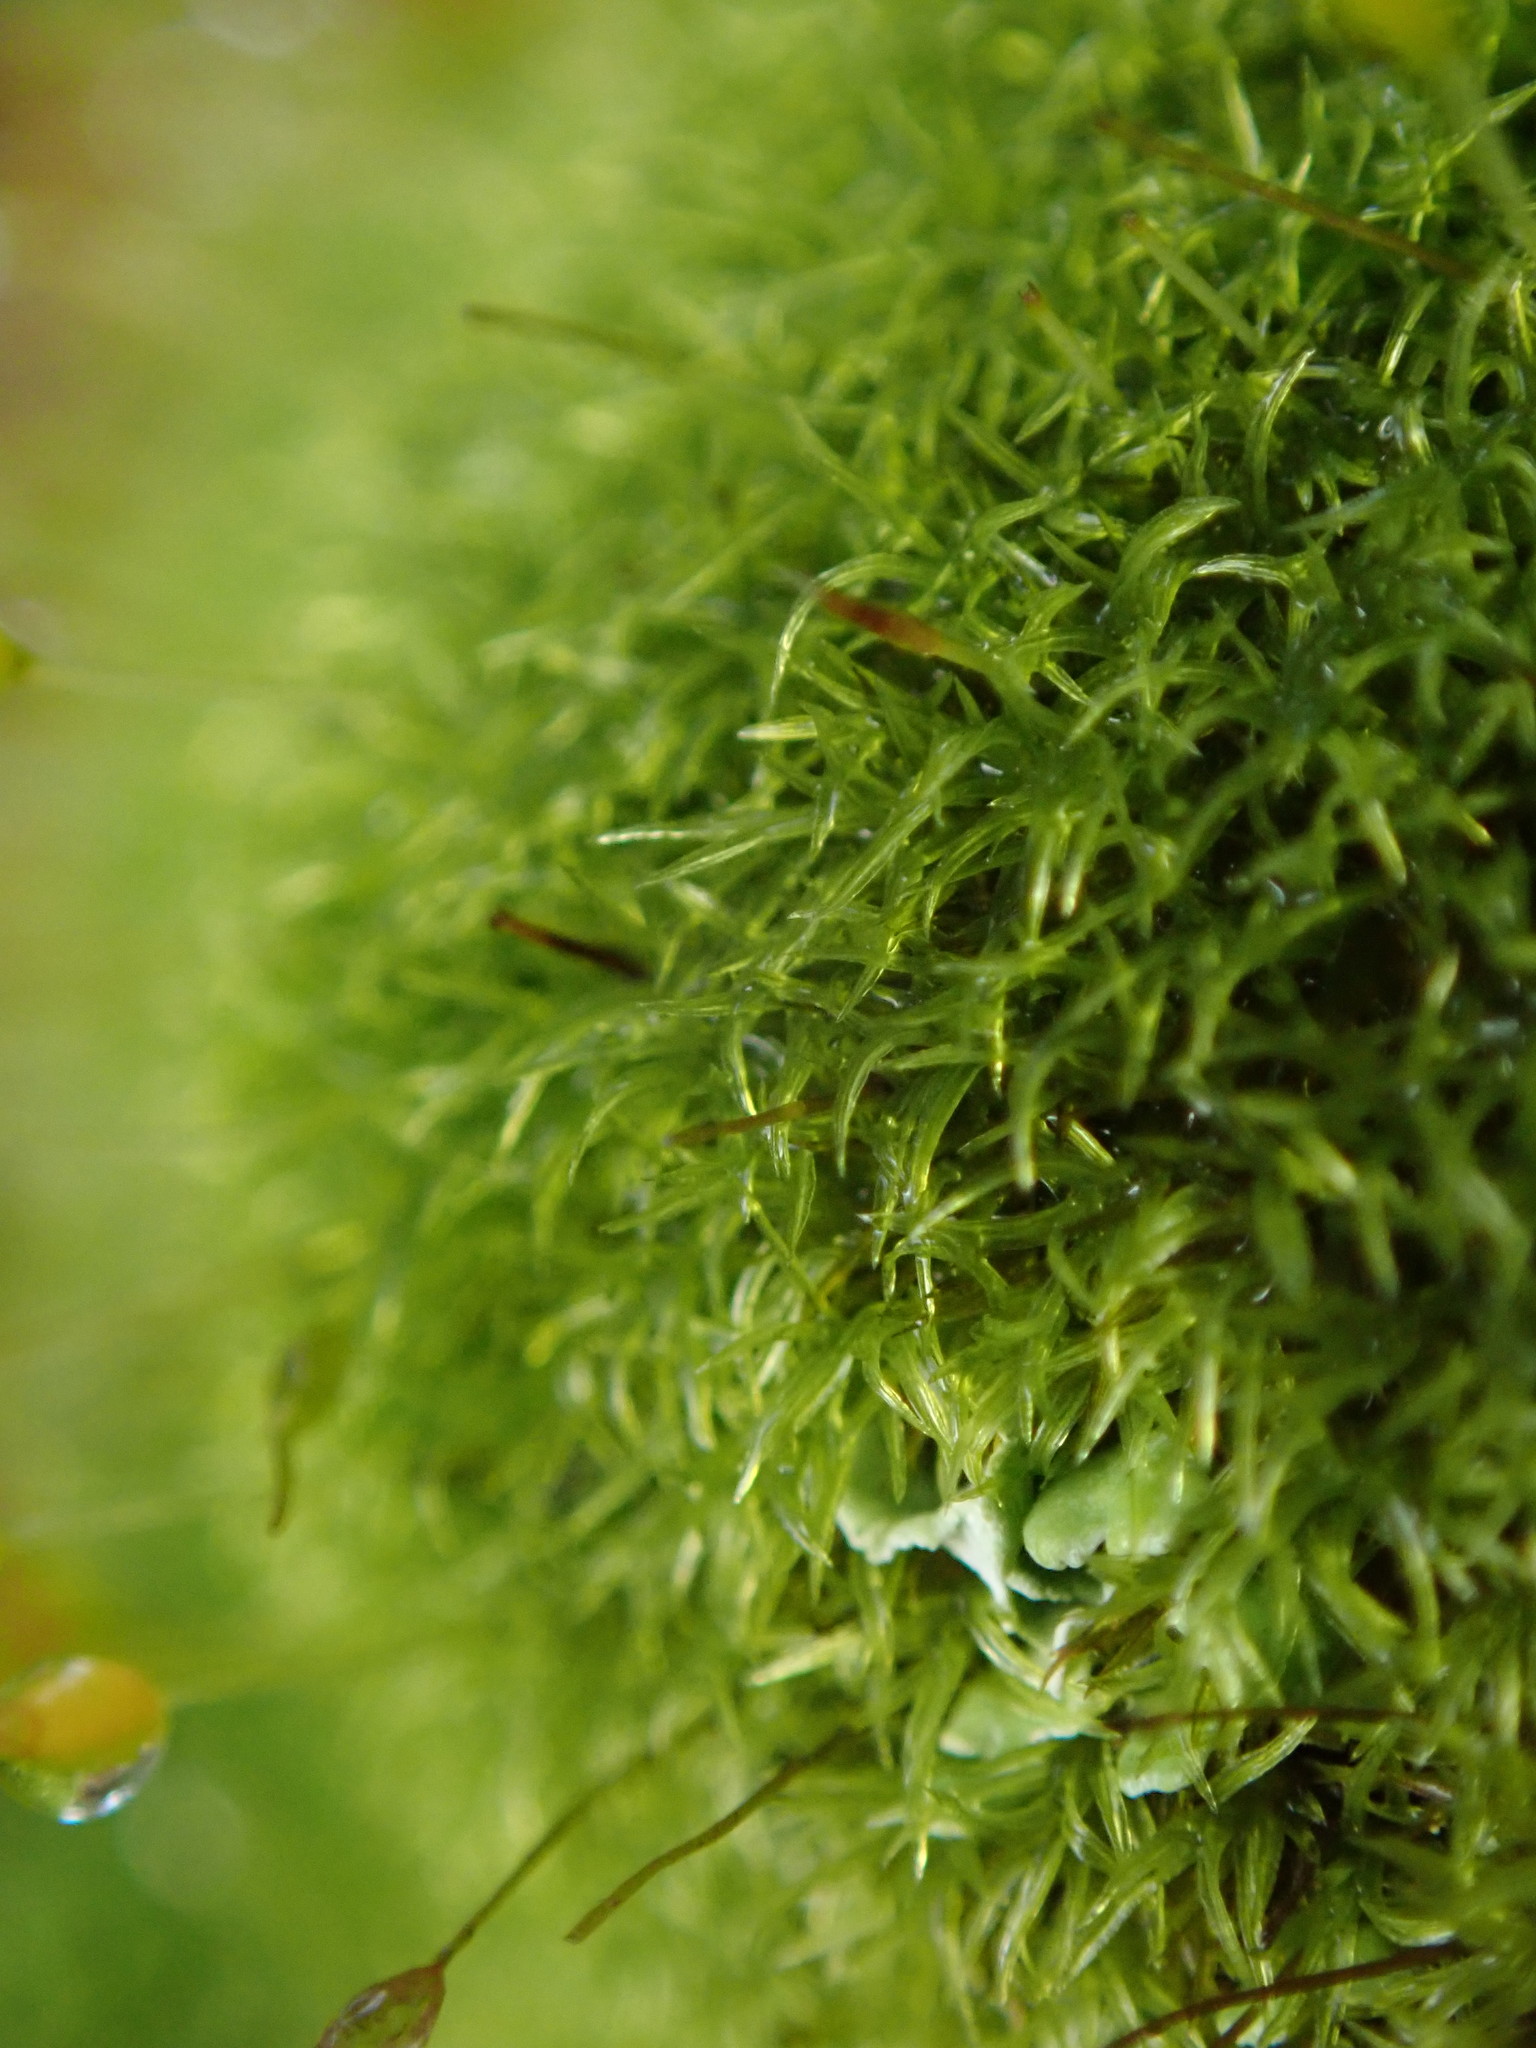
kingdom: Plantae
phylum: Bryophyta
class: Bryopsida
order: Dicranales
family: Rhabdoweisiaceae
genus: Dicranoweisia
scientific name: Dicranoweisia cirrata
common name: Common pincushion
